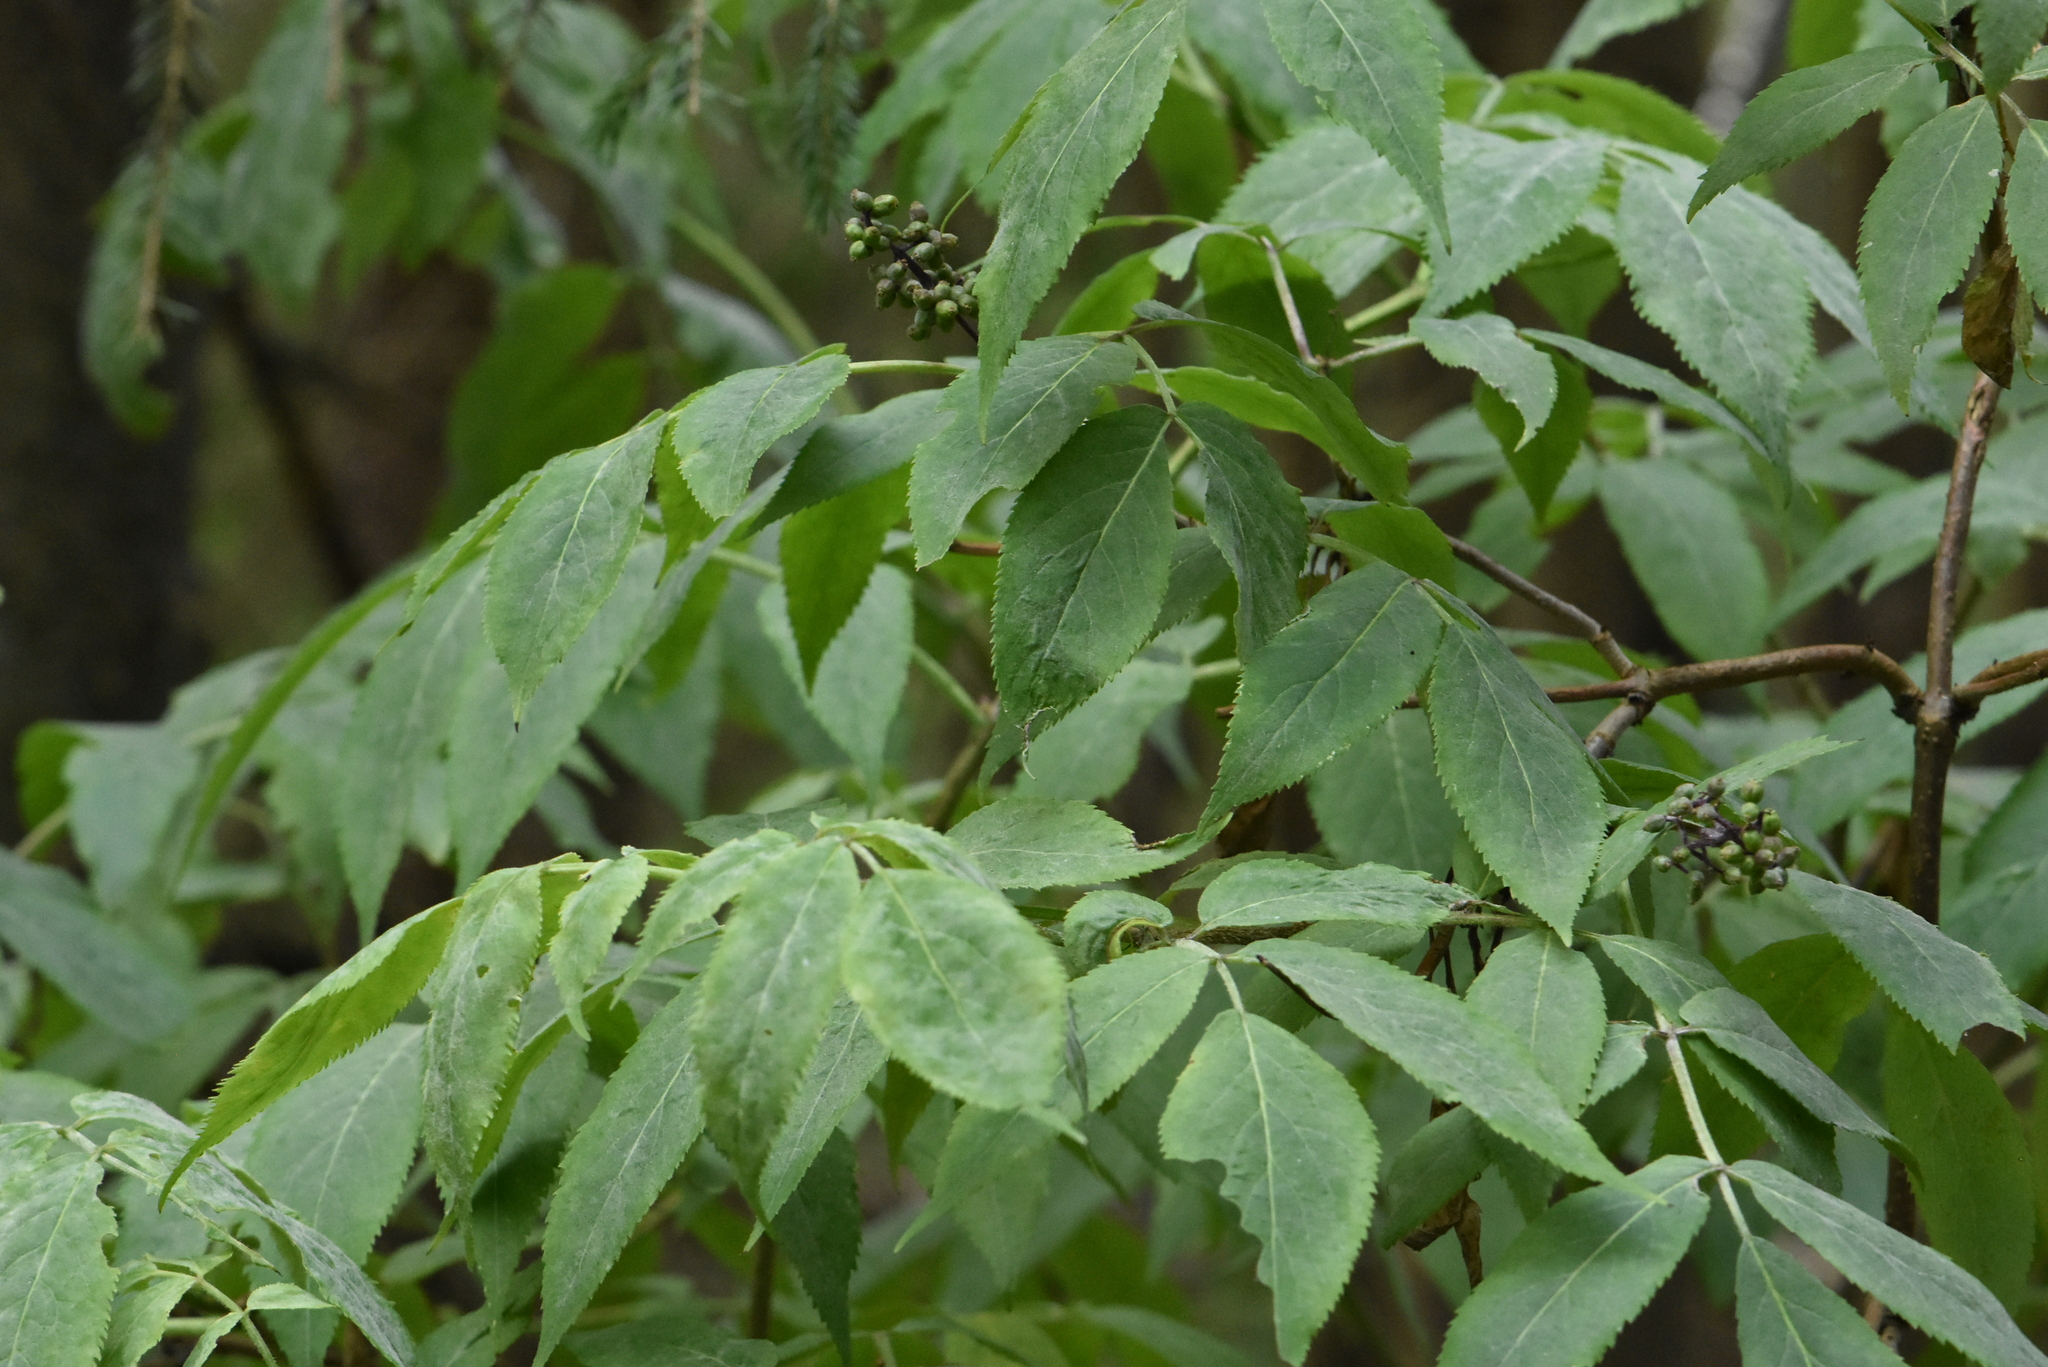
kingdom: Plantae
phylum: Tracheophyta
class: Magnoliopsida
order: Dipsacales
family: Viburnaceae
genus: Sambucus
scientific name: Sambucus racemosa
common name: Red-berried elder
